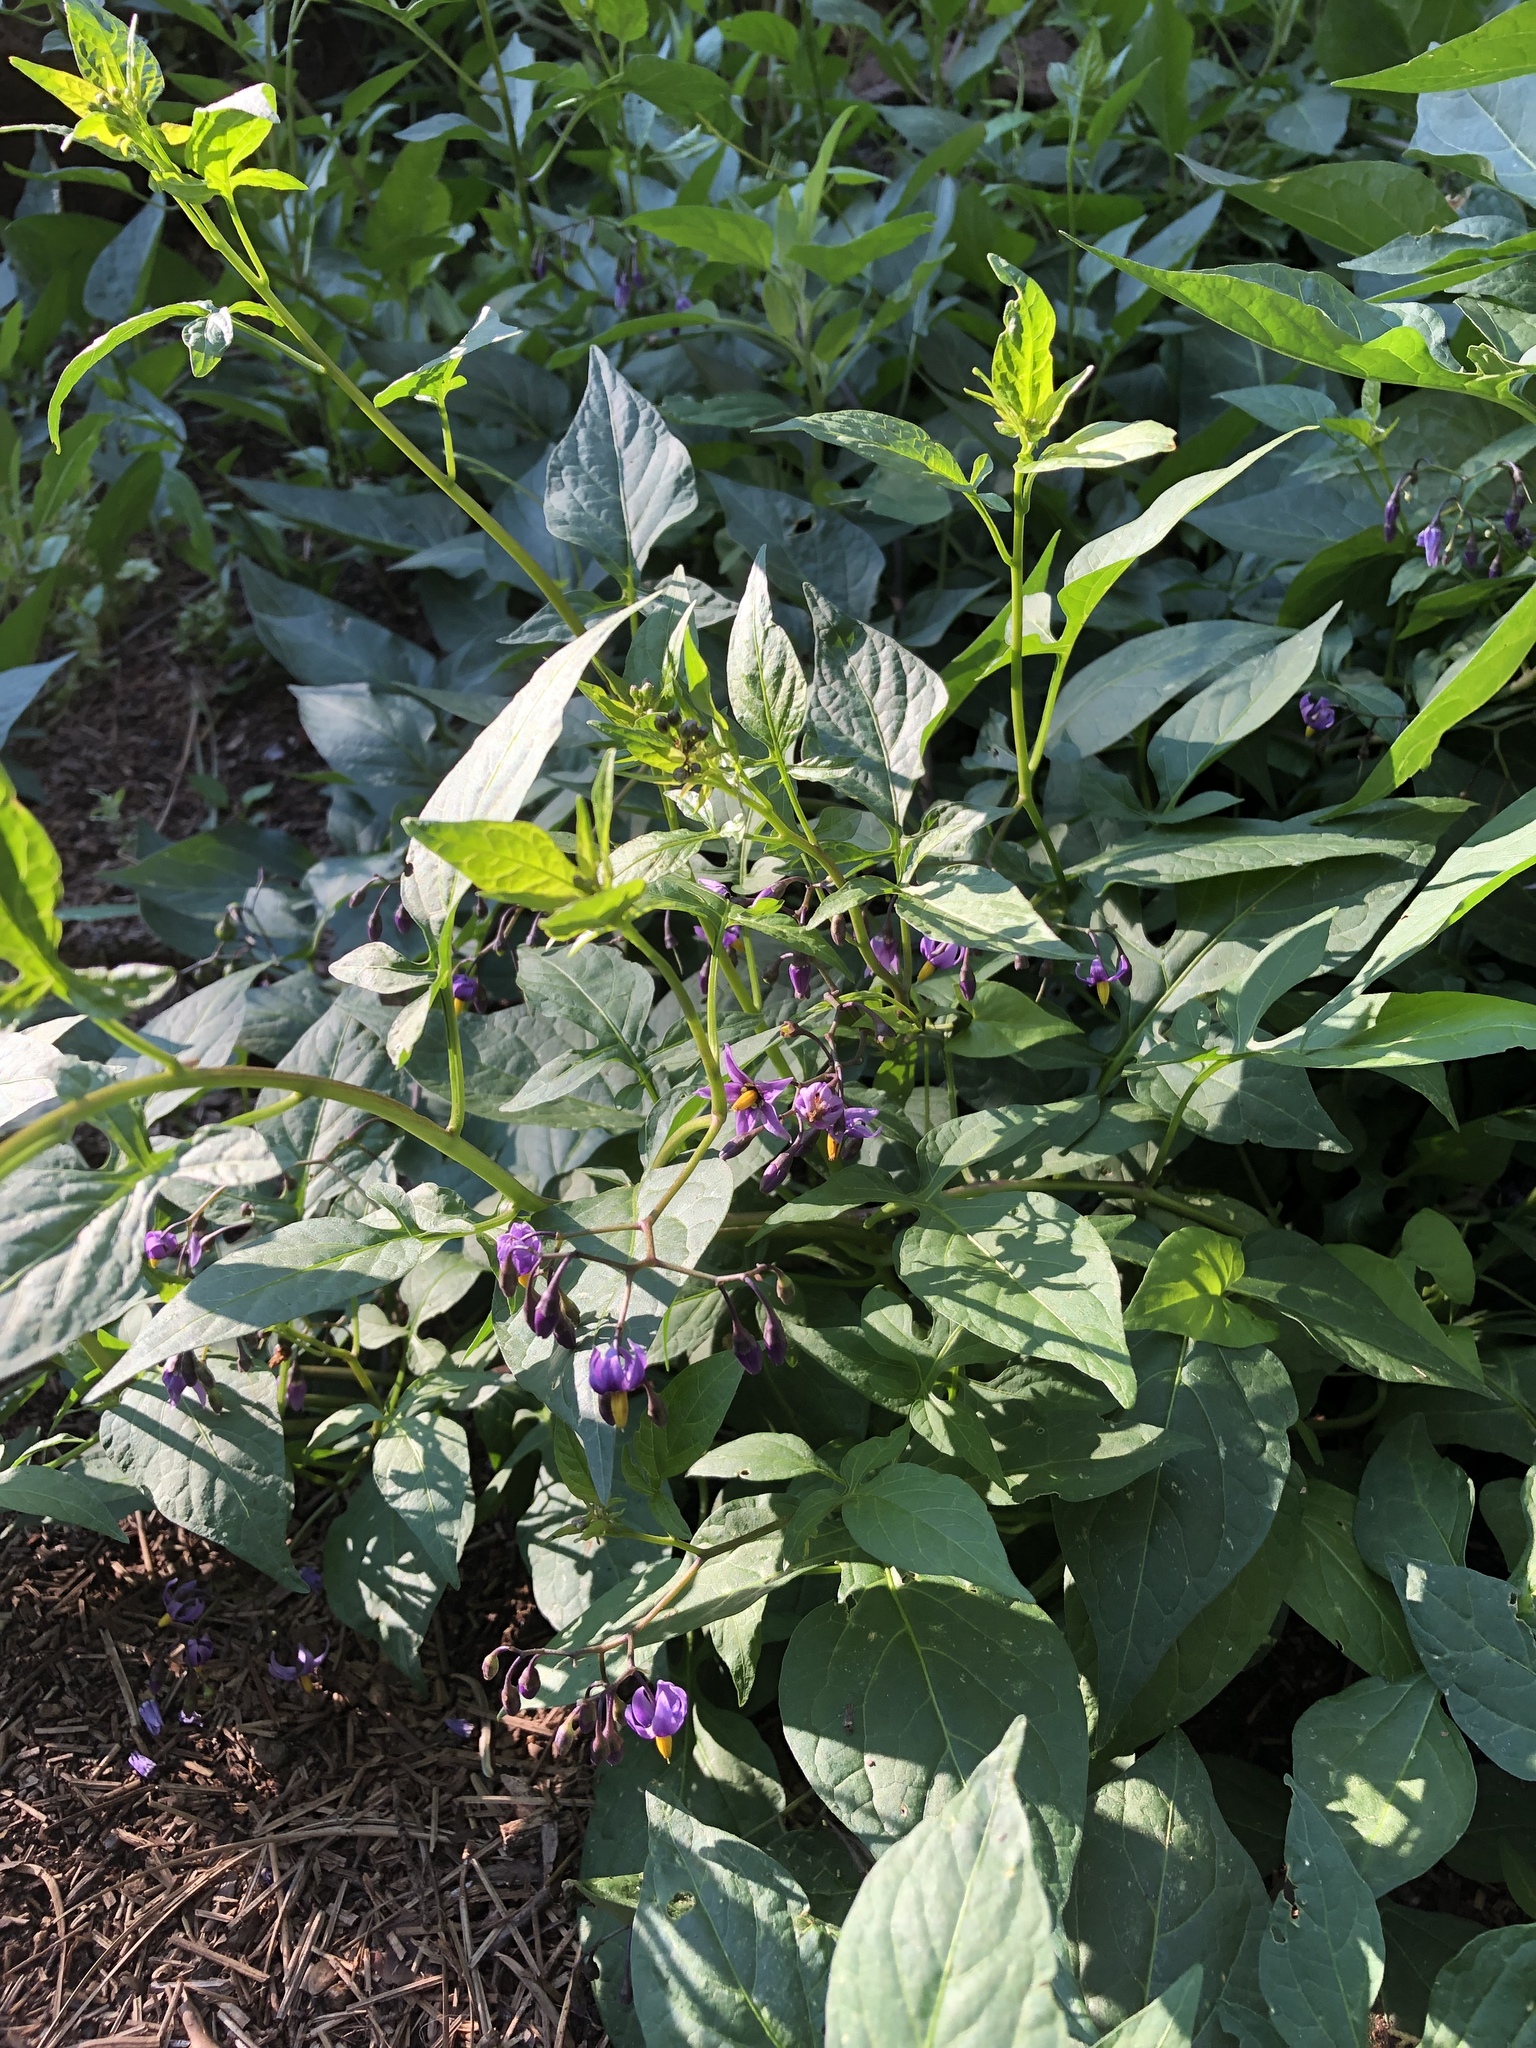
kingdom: Plantae
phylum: Tracheophyta
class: Magnoliopsida
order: Solanales
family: Solanaceae
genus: Solanum
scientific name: Solanum dulcamara
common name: Climbing nightshade
